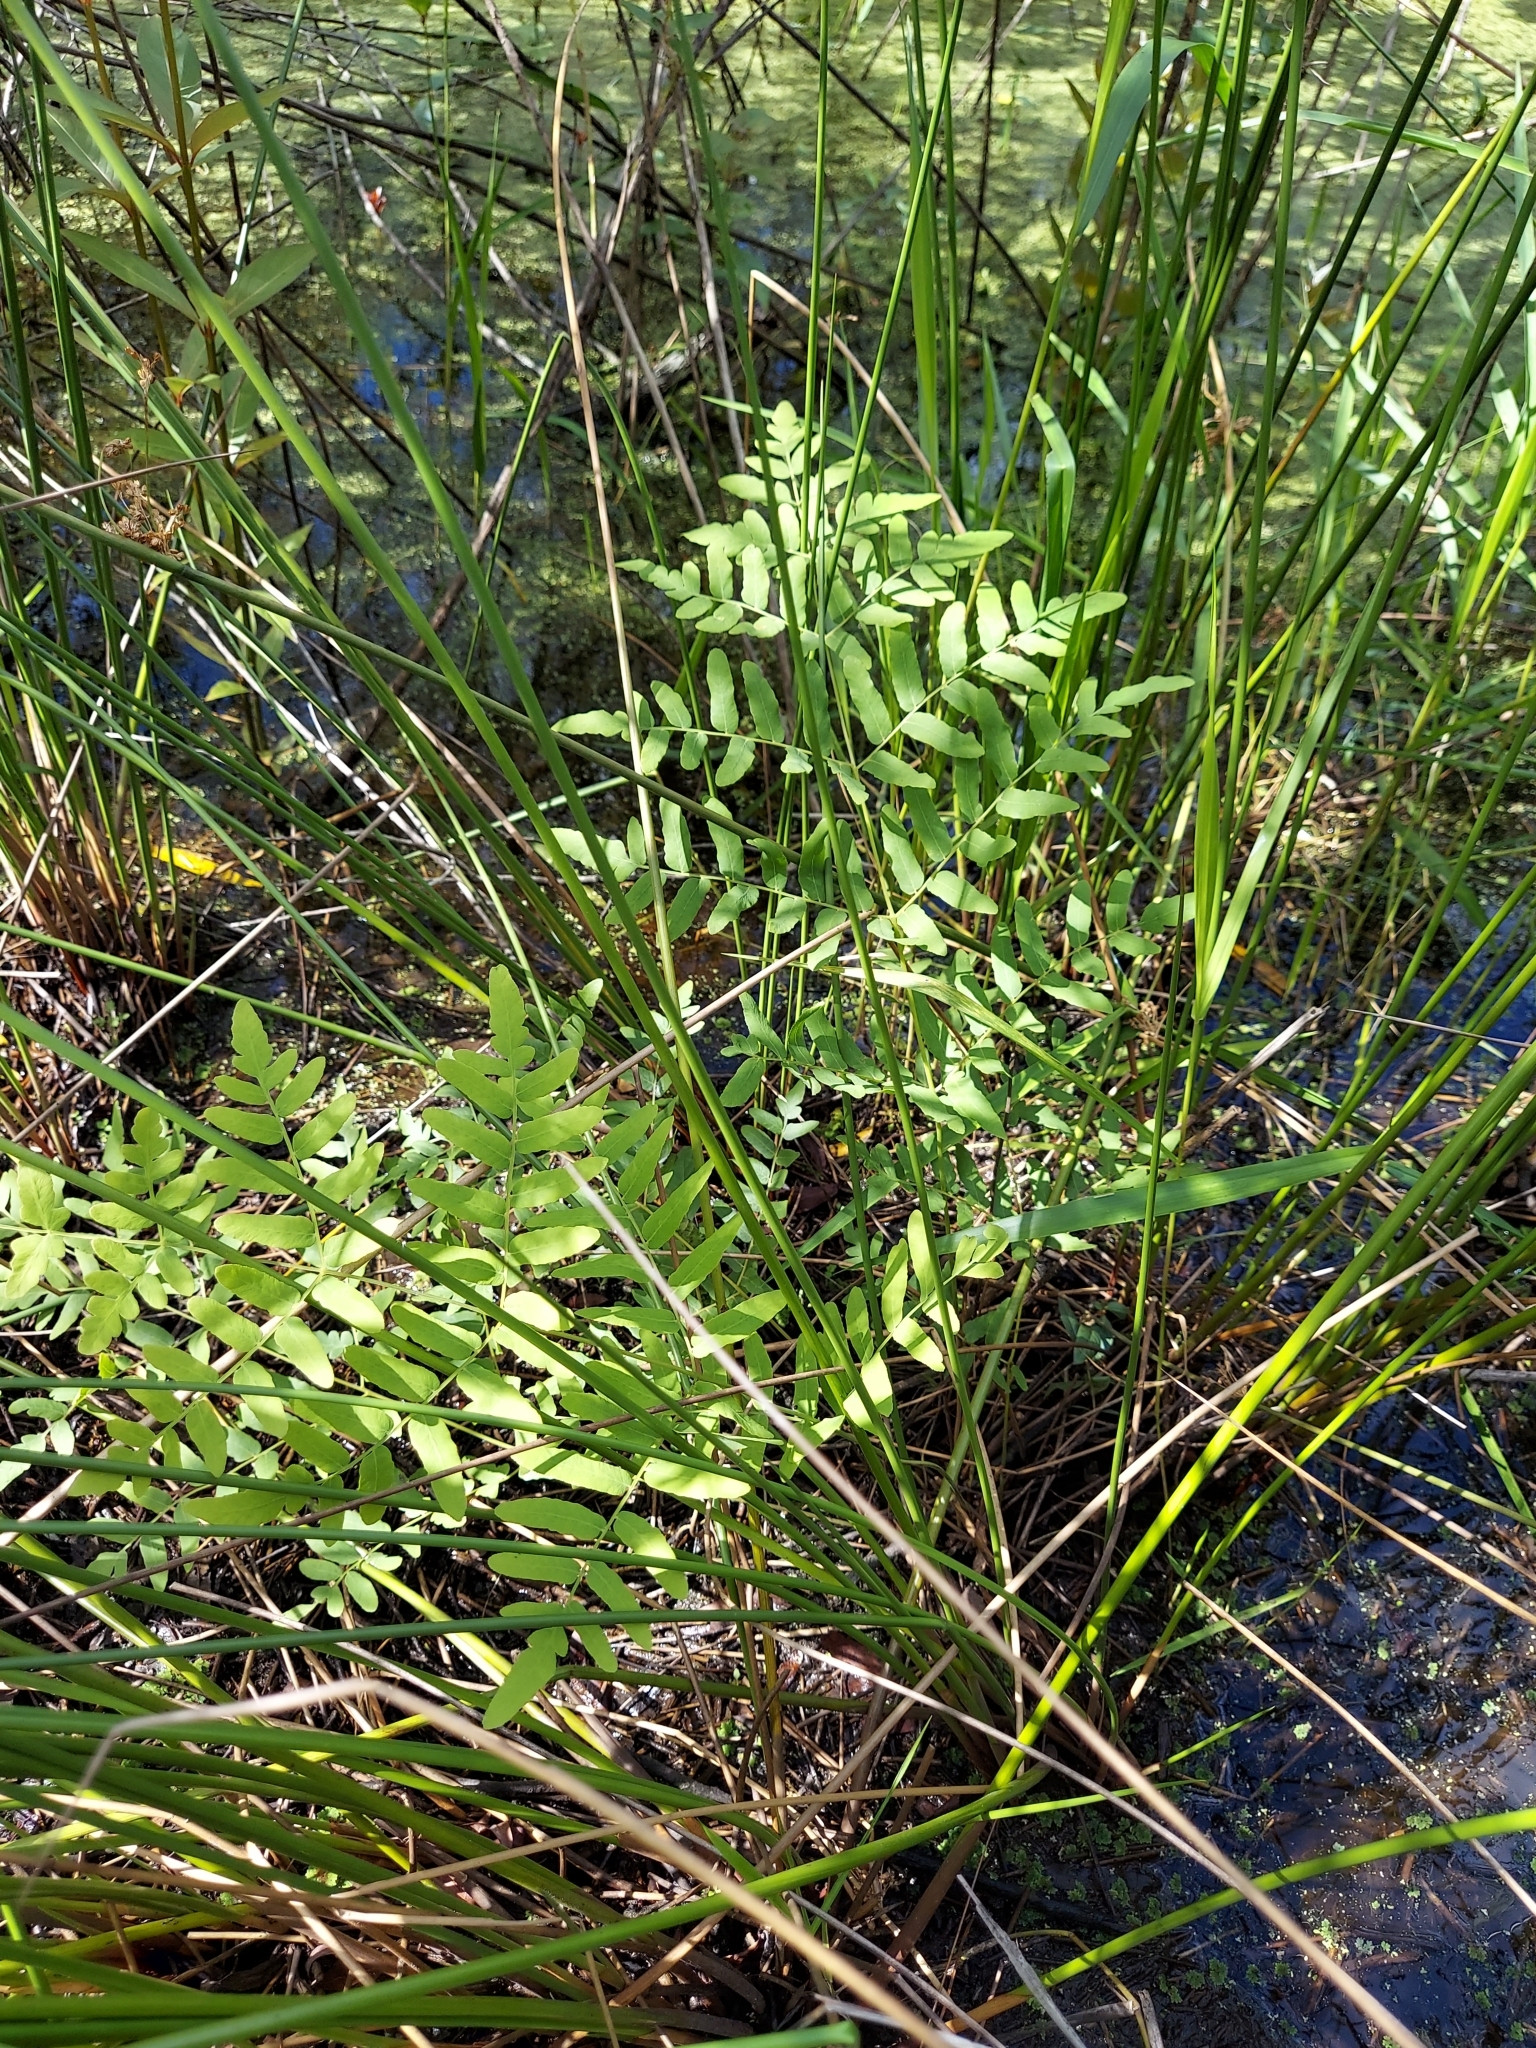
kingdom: Plantae
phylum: Tracheophyta
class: Polypodiopsida
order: Osmundales
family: Osmundaceae
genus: Osmunda
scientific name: Osmunda spectabilis
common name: American royal fern
